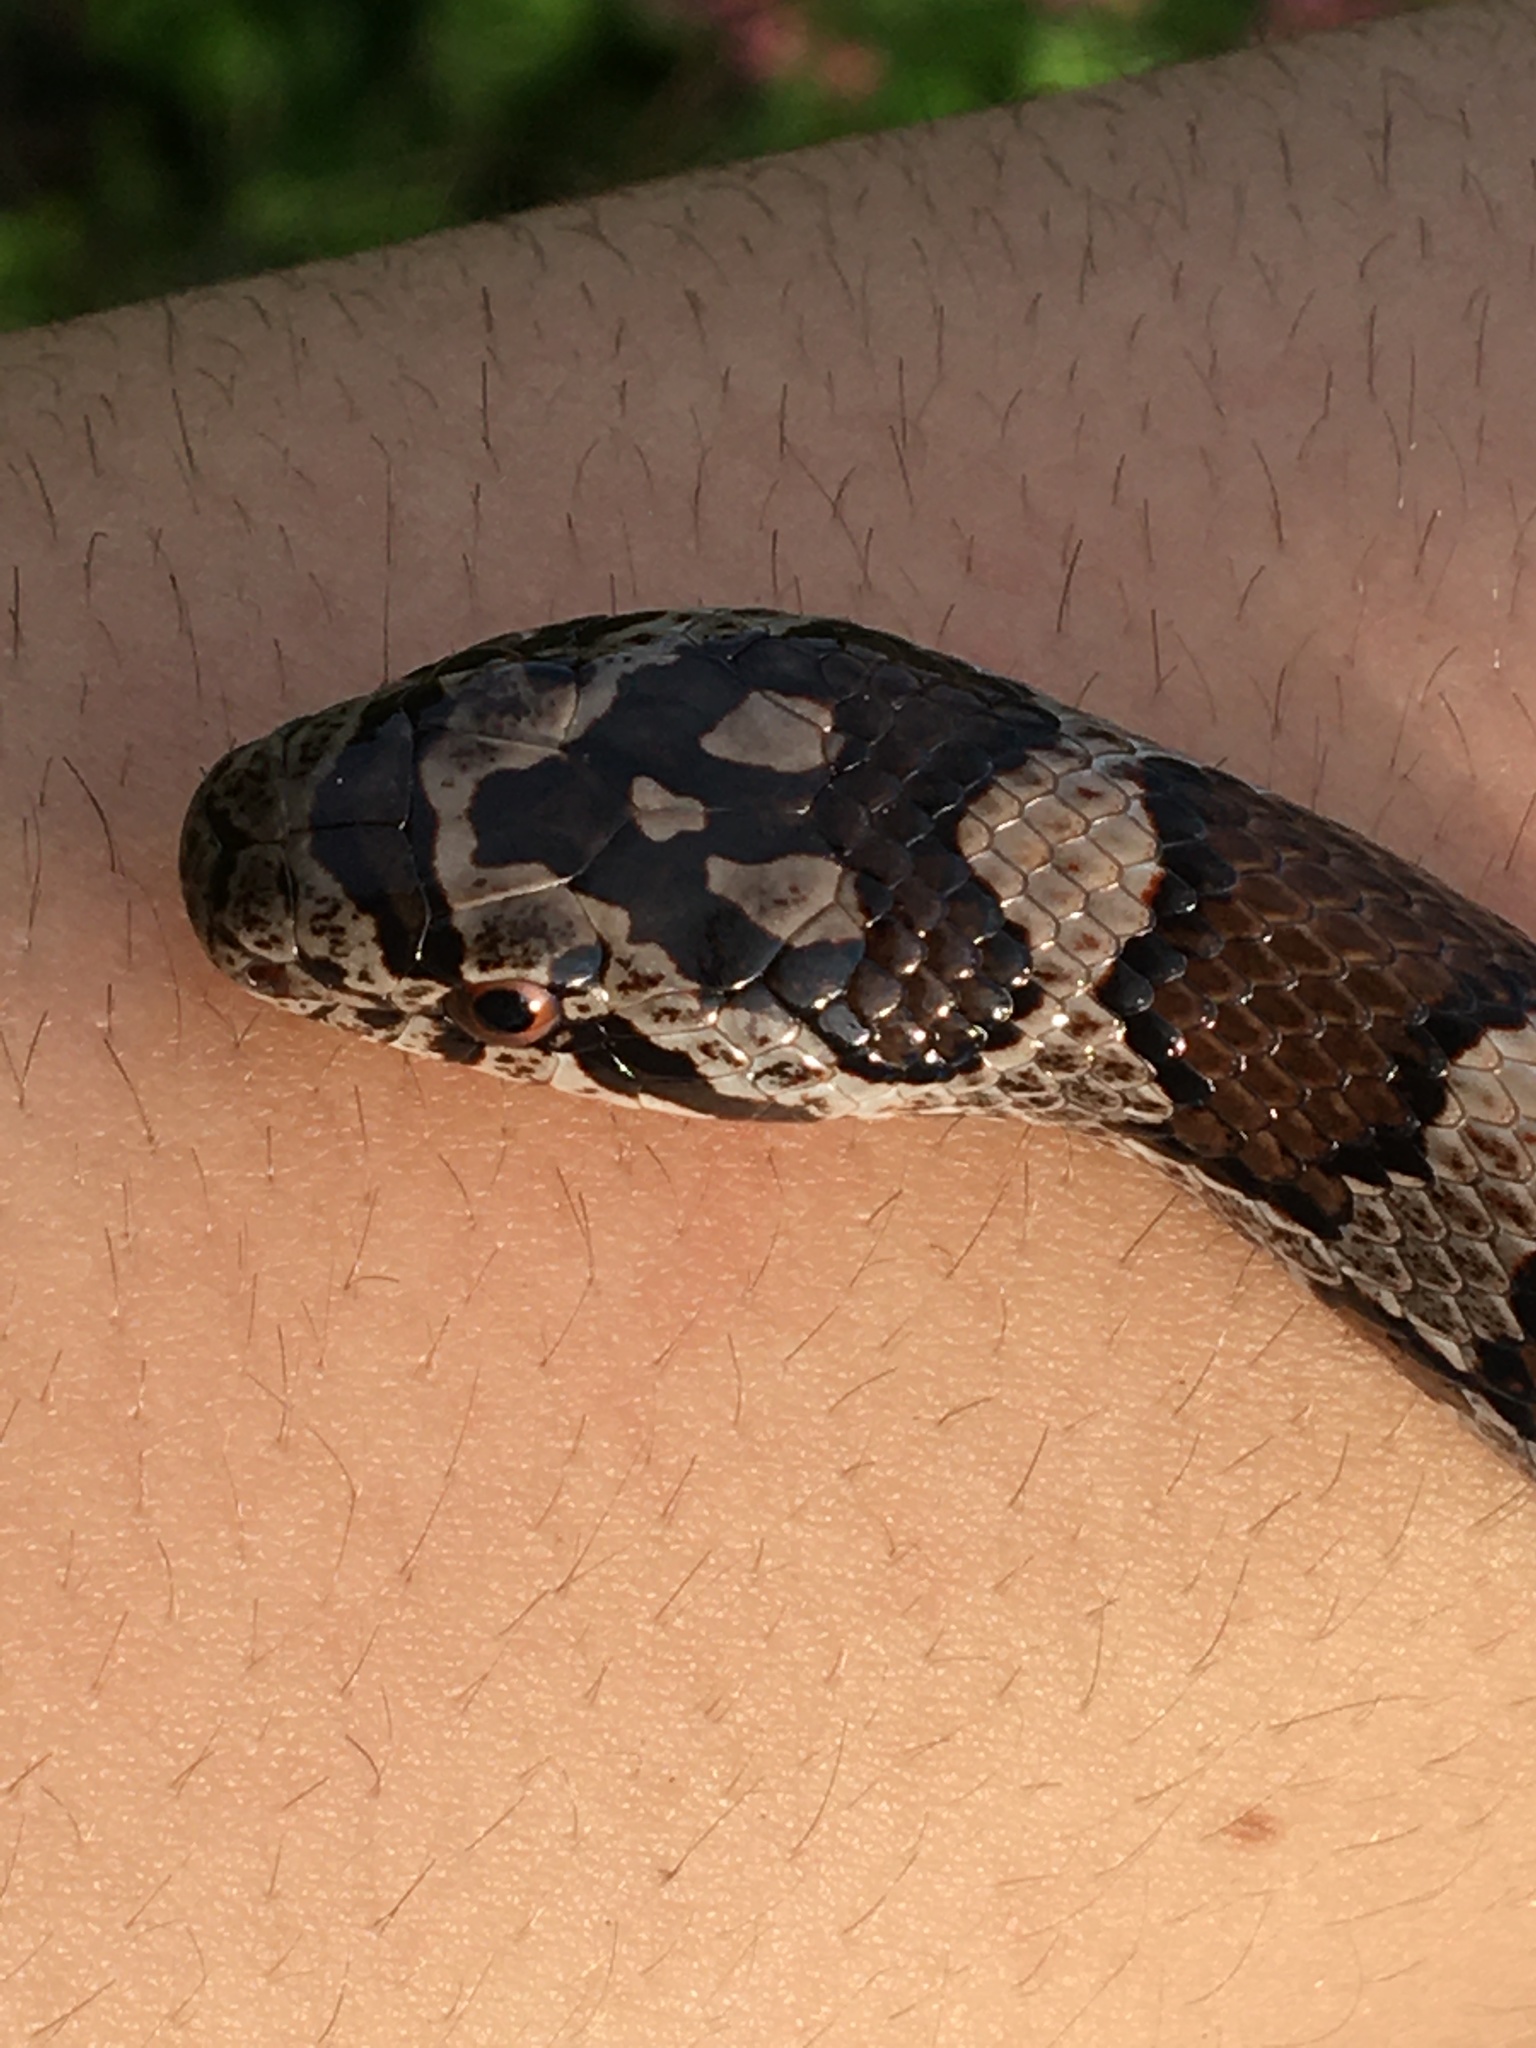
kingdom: Animalia
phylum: Chordata
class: Squamata
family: Colubridae
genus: Lampropeltis
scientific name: Lampropeltis triangulum
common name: Eastern milksnake
